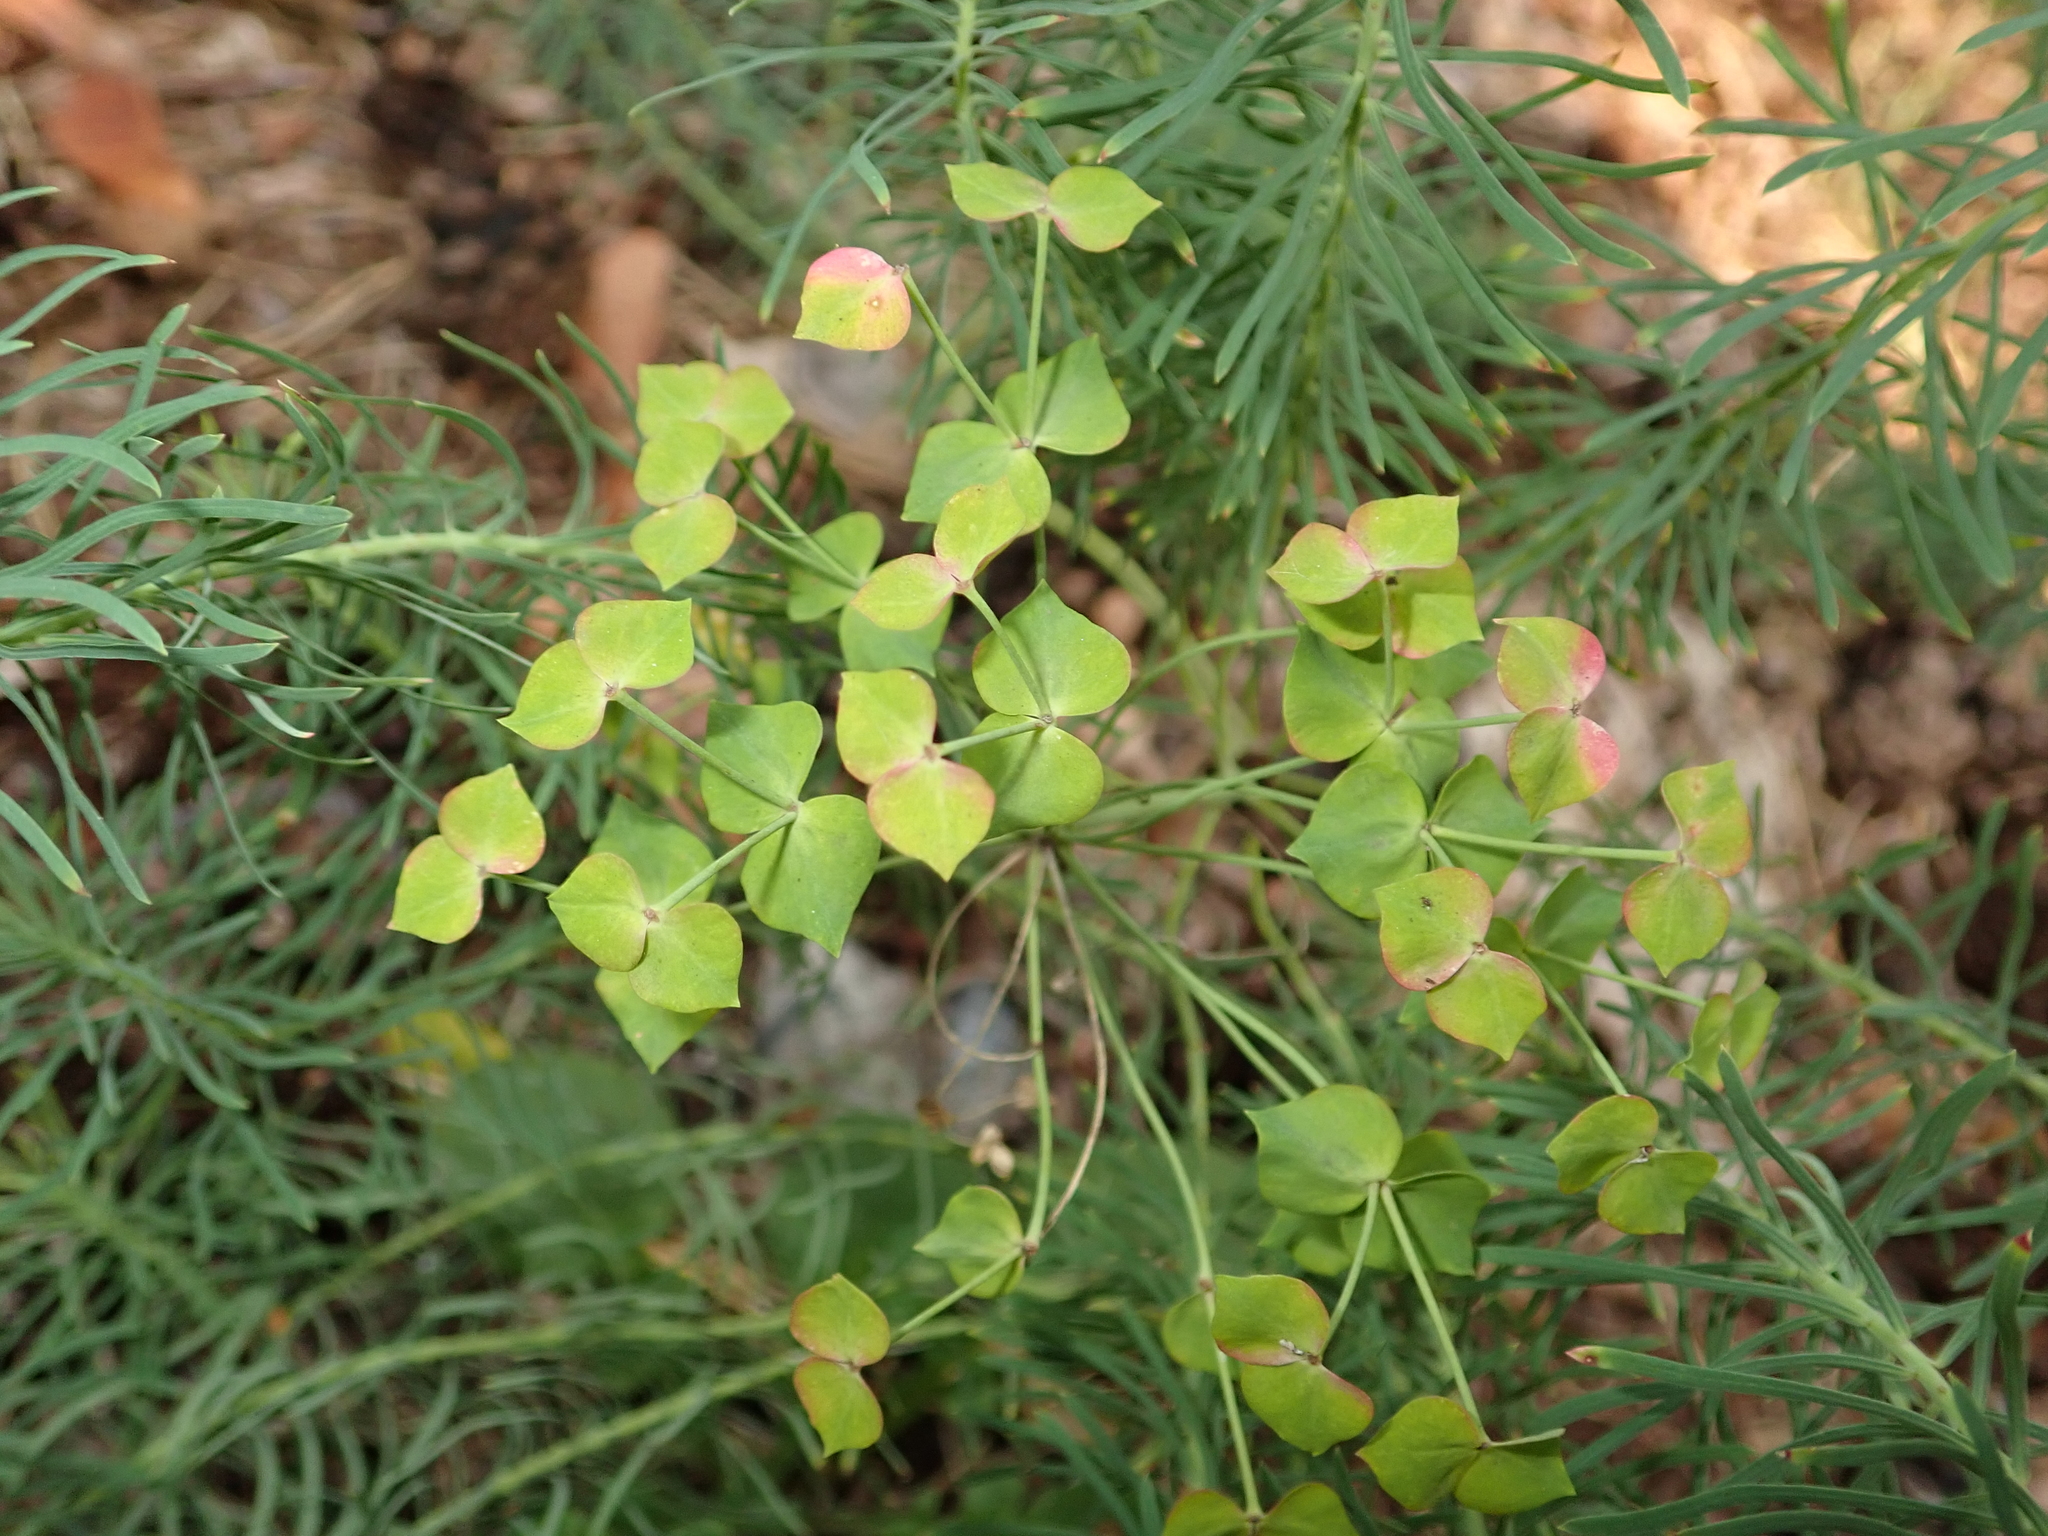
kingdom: Plantae
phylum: Tracheophyta
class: Magnoliopsida
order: Malpighiales
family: Euphorbiaceae
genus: Euphorbia
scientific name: Euphorbia cyparissias
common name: Cypress spurge
